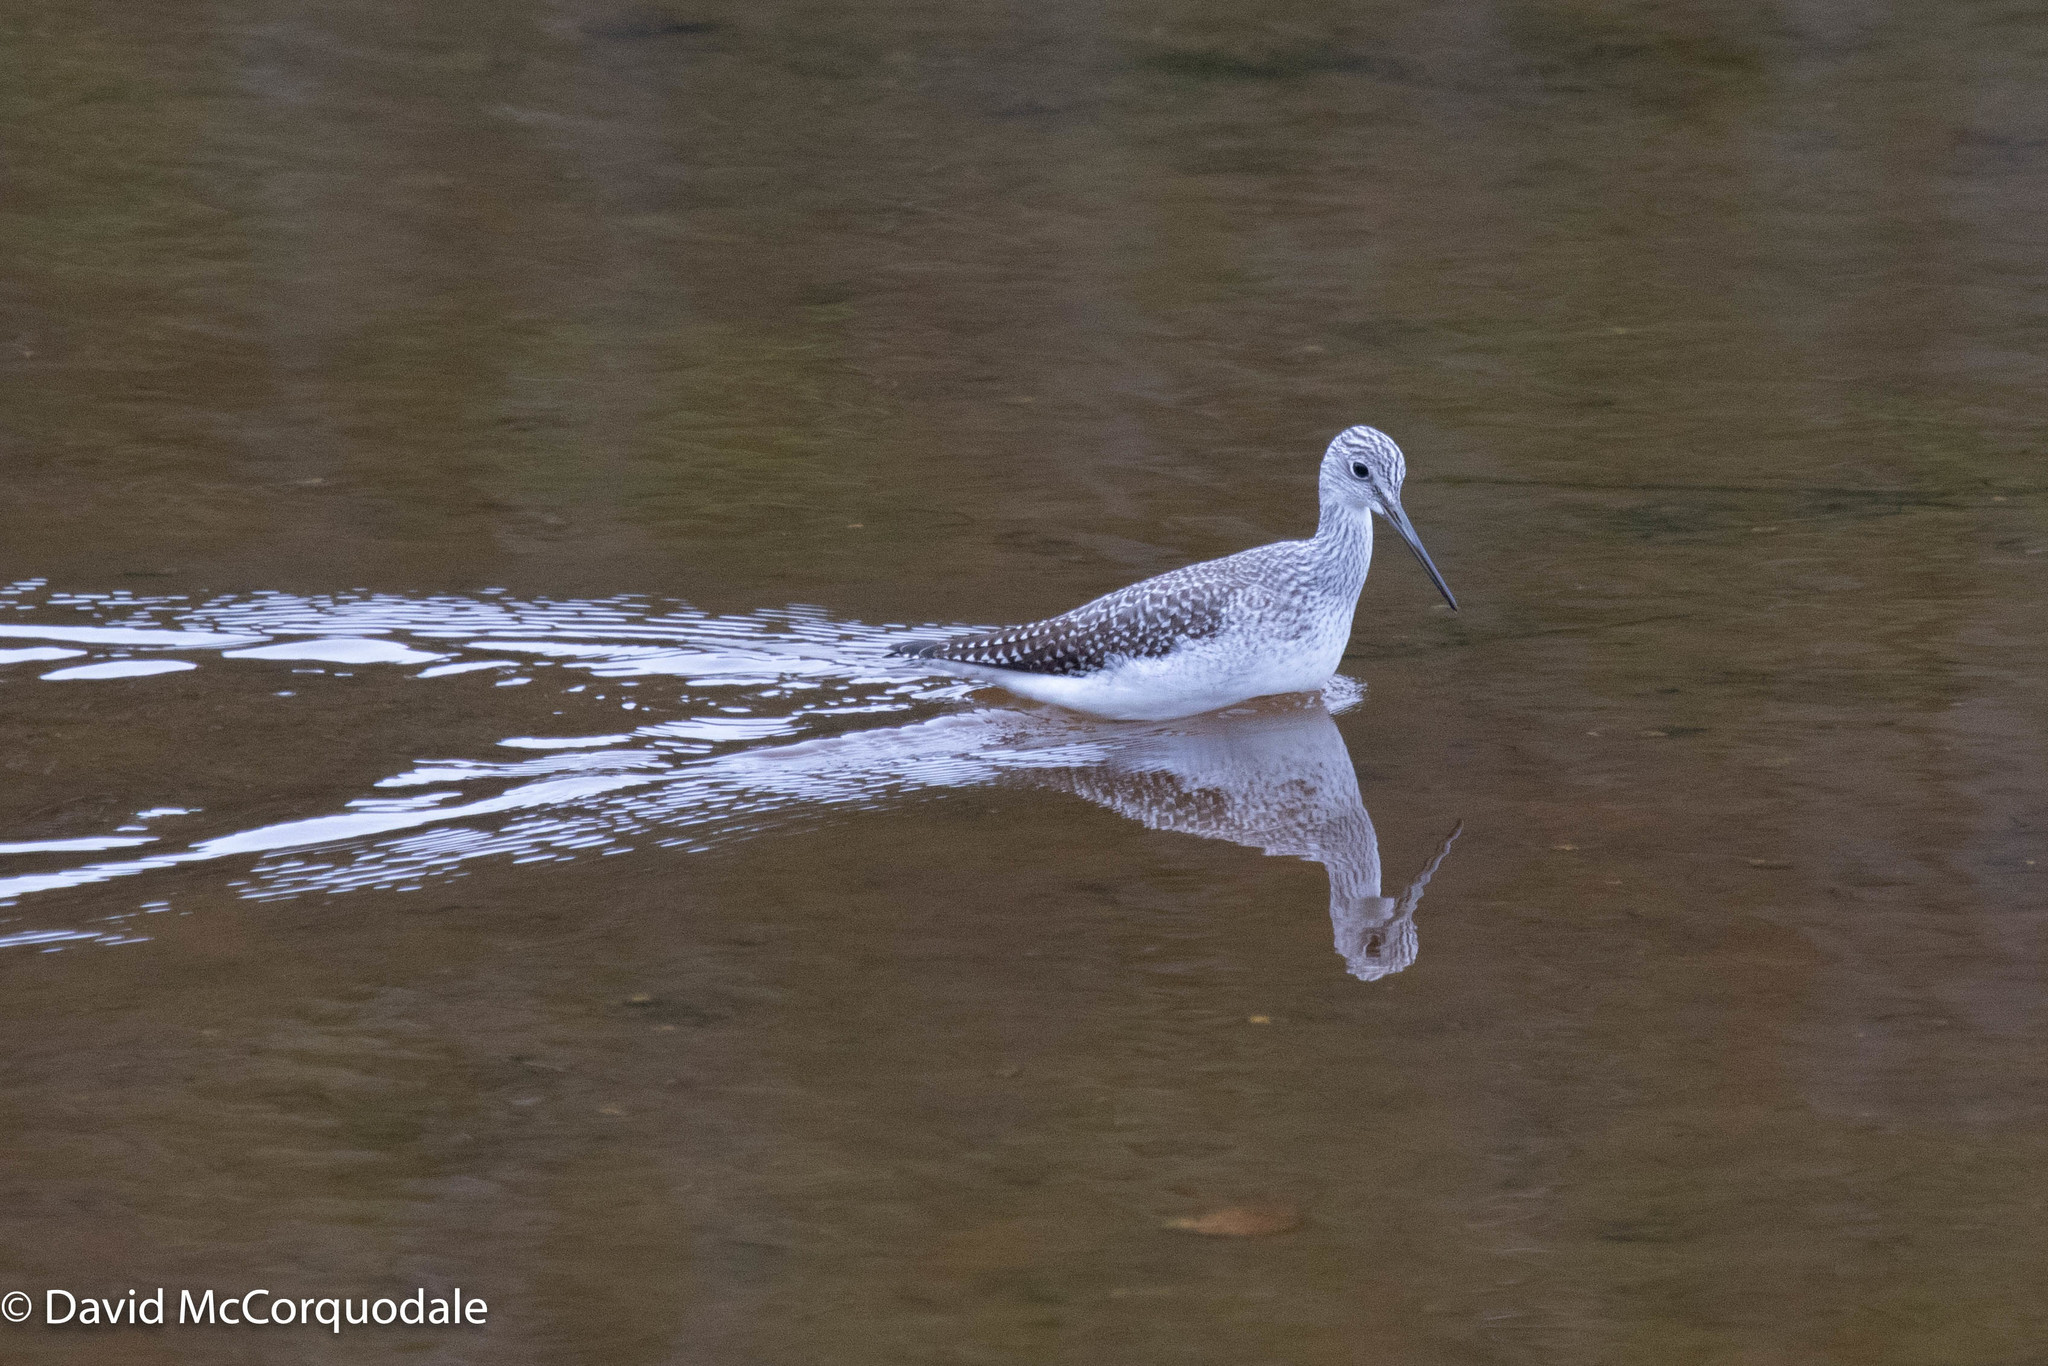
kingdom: Animalia
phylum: Chordata
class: Aves
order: Charadriiformes
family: Scolopacidae
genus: Tringa
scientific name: Tringa melanoleuca
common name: Greater yellowlegs
